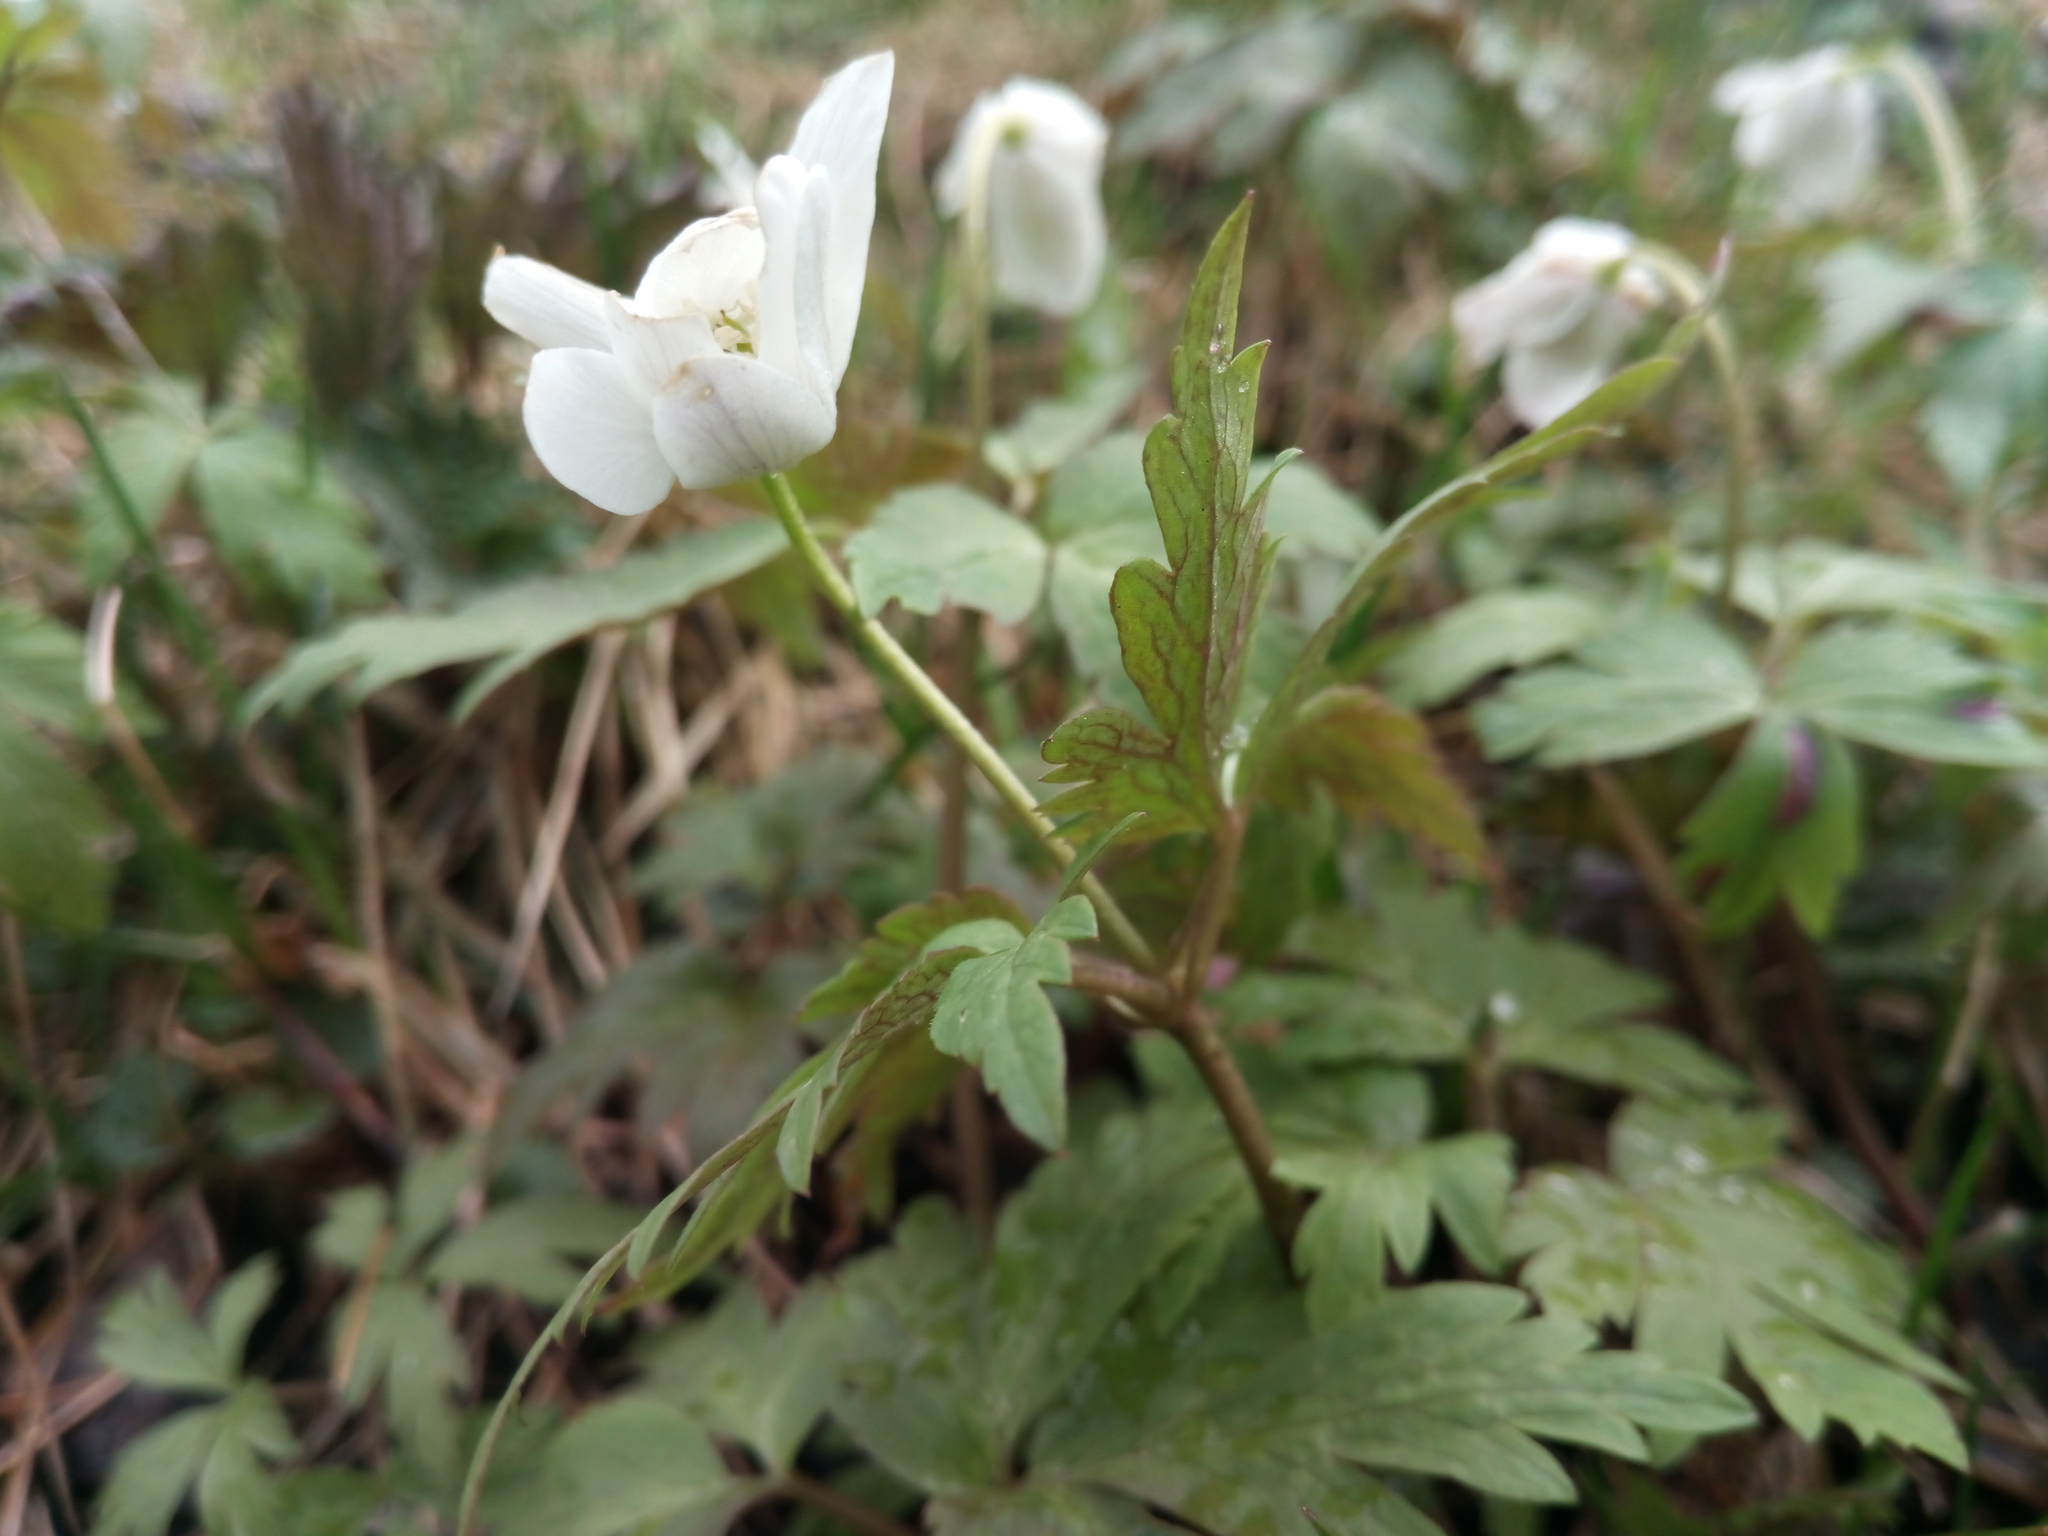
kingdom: Plantae
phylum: Tracheophyta
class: Magnoliopsida
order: Ranunculales
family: Ranunculaceae
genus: Anemone
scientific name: Anemone altaica
